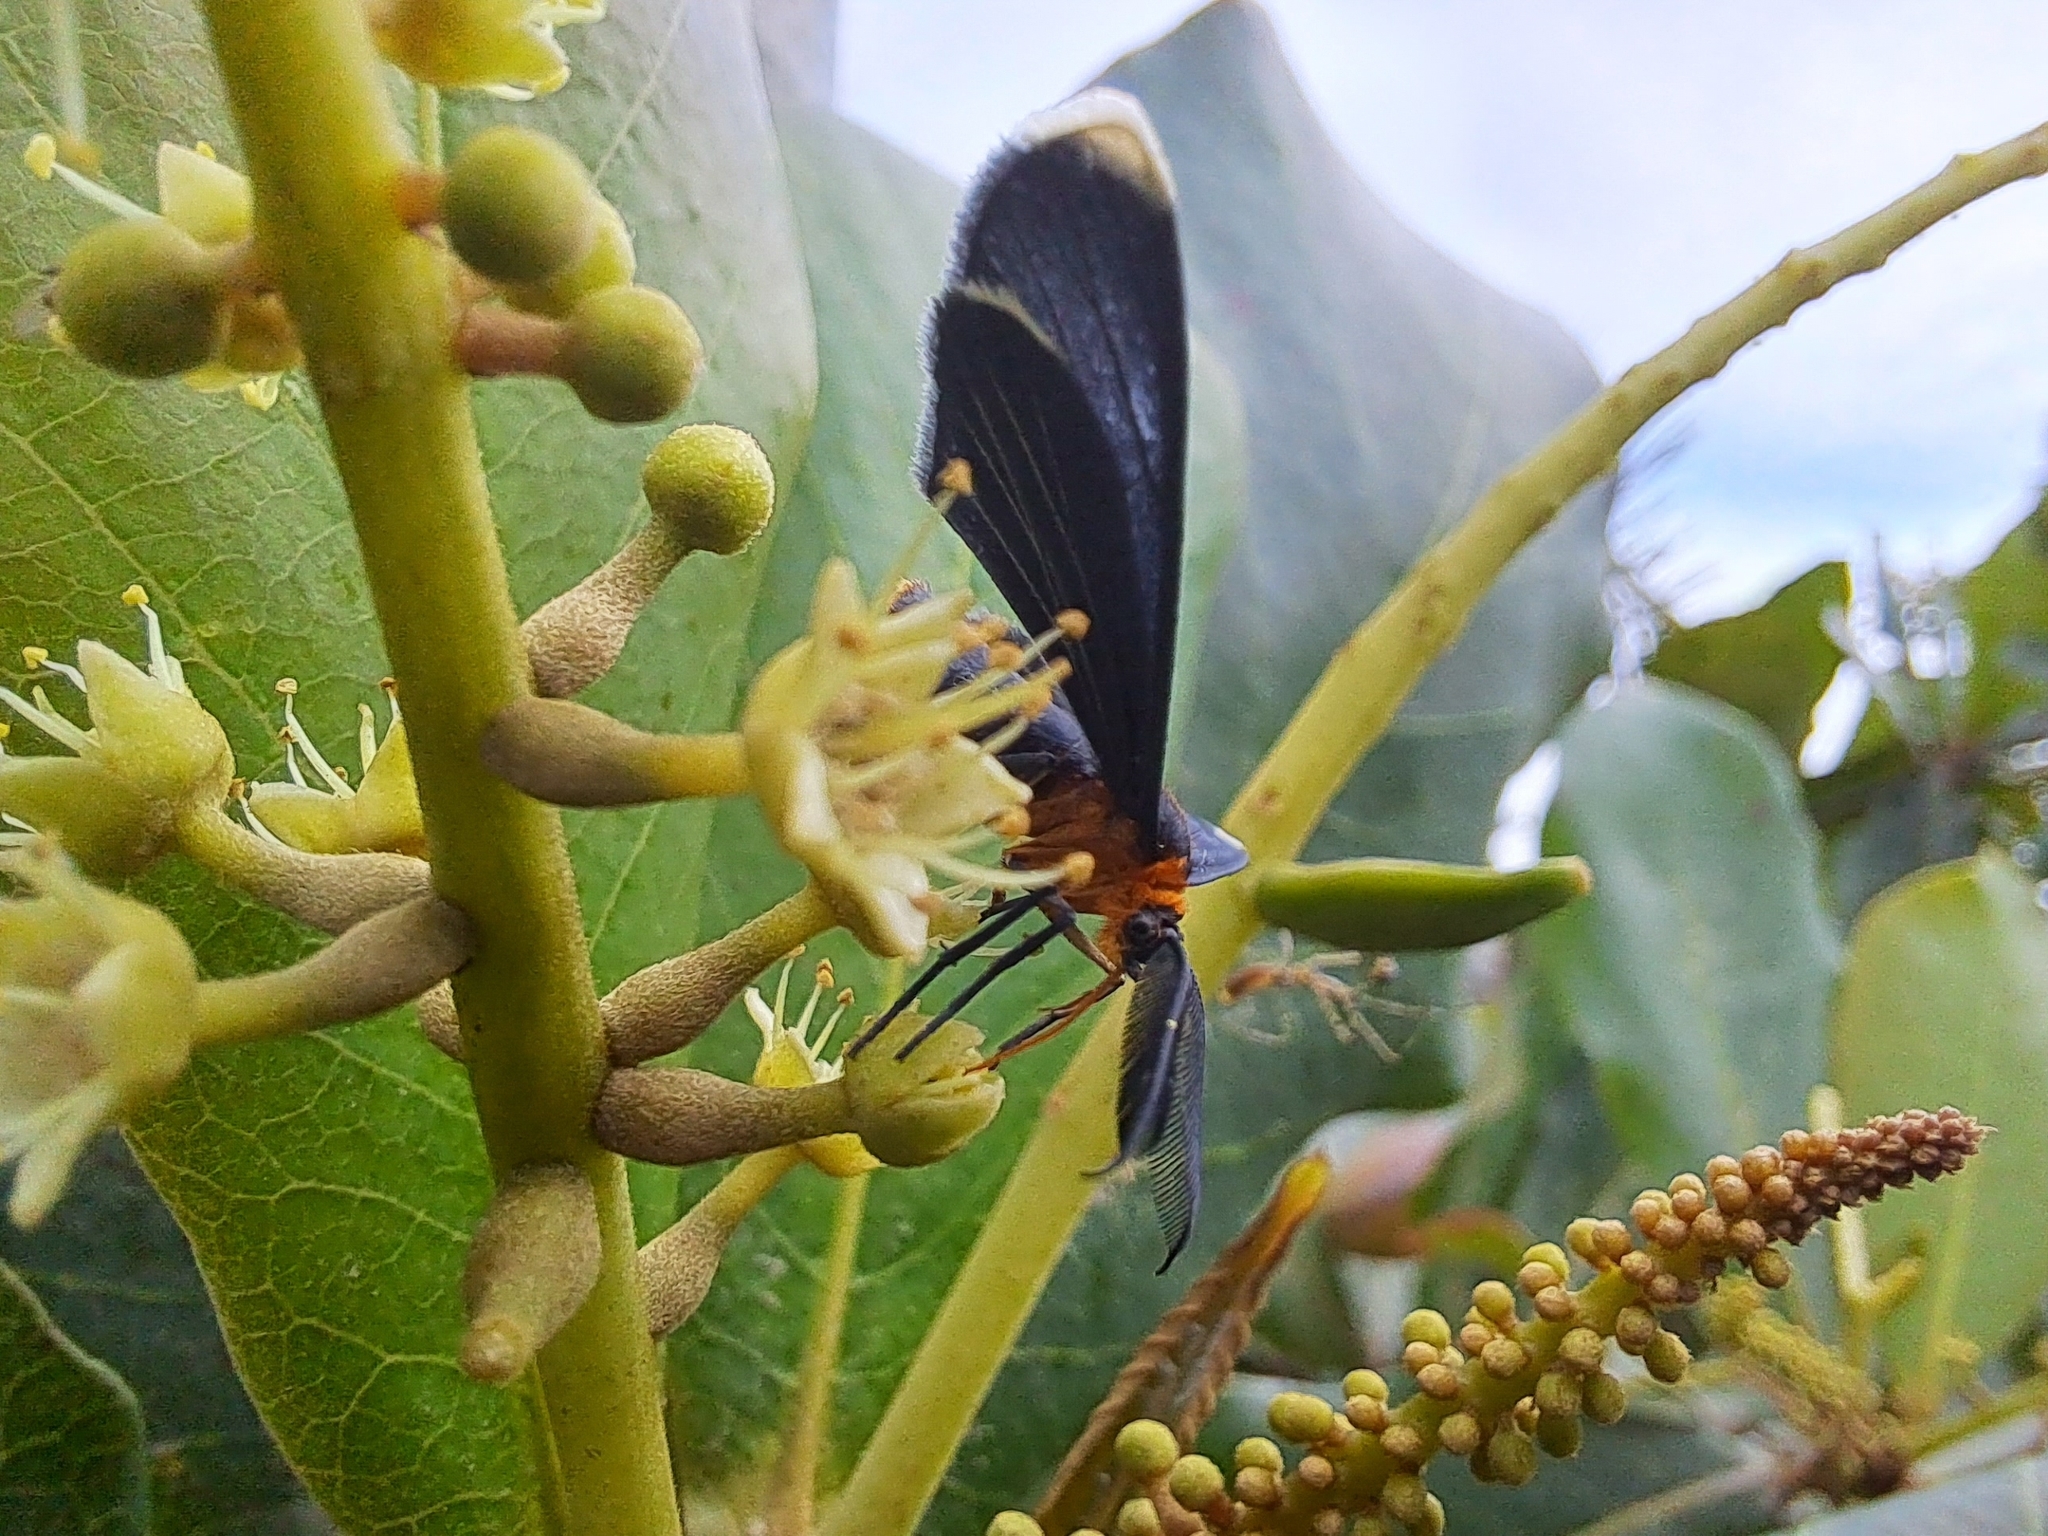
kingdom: Animalia
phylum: Arthropoda
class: Insecta
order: Lepidoptera
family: Geometridae
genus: Melanchroia
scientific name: Melanchroia chephise
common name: White-tipped black
